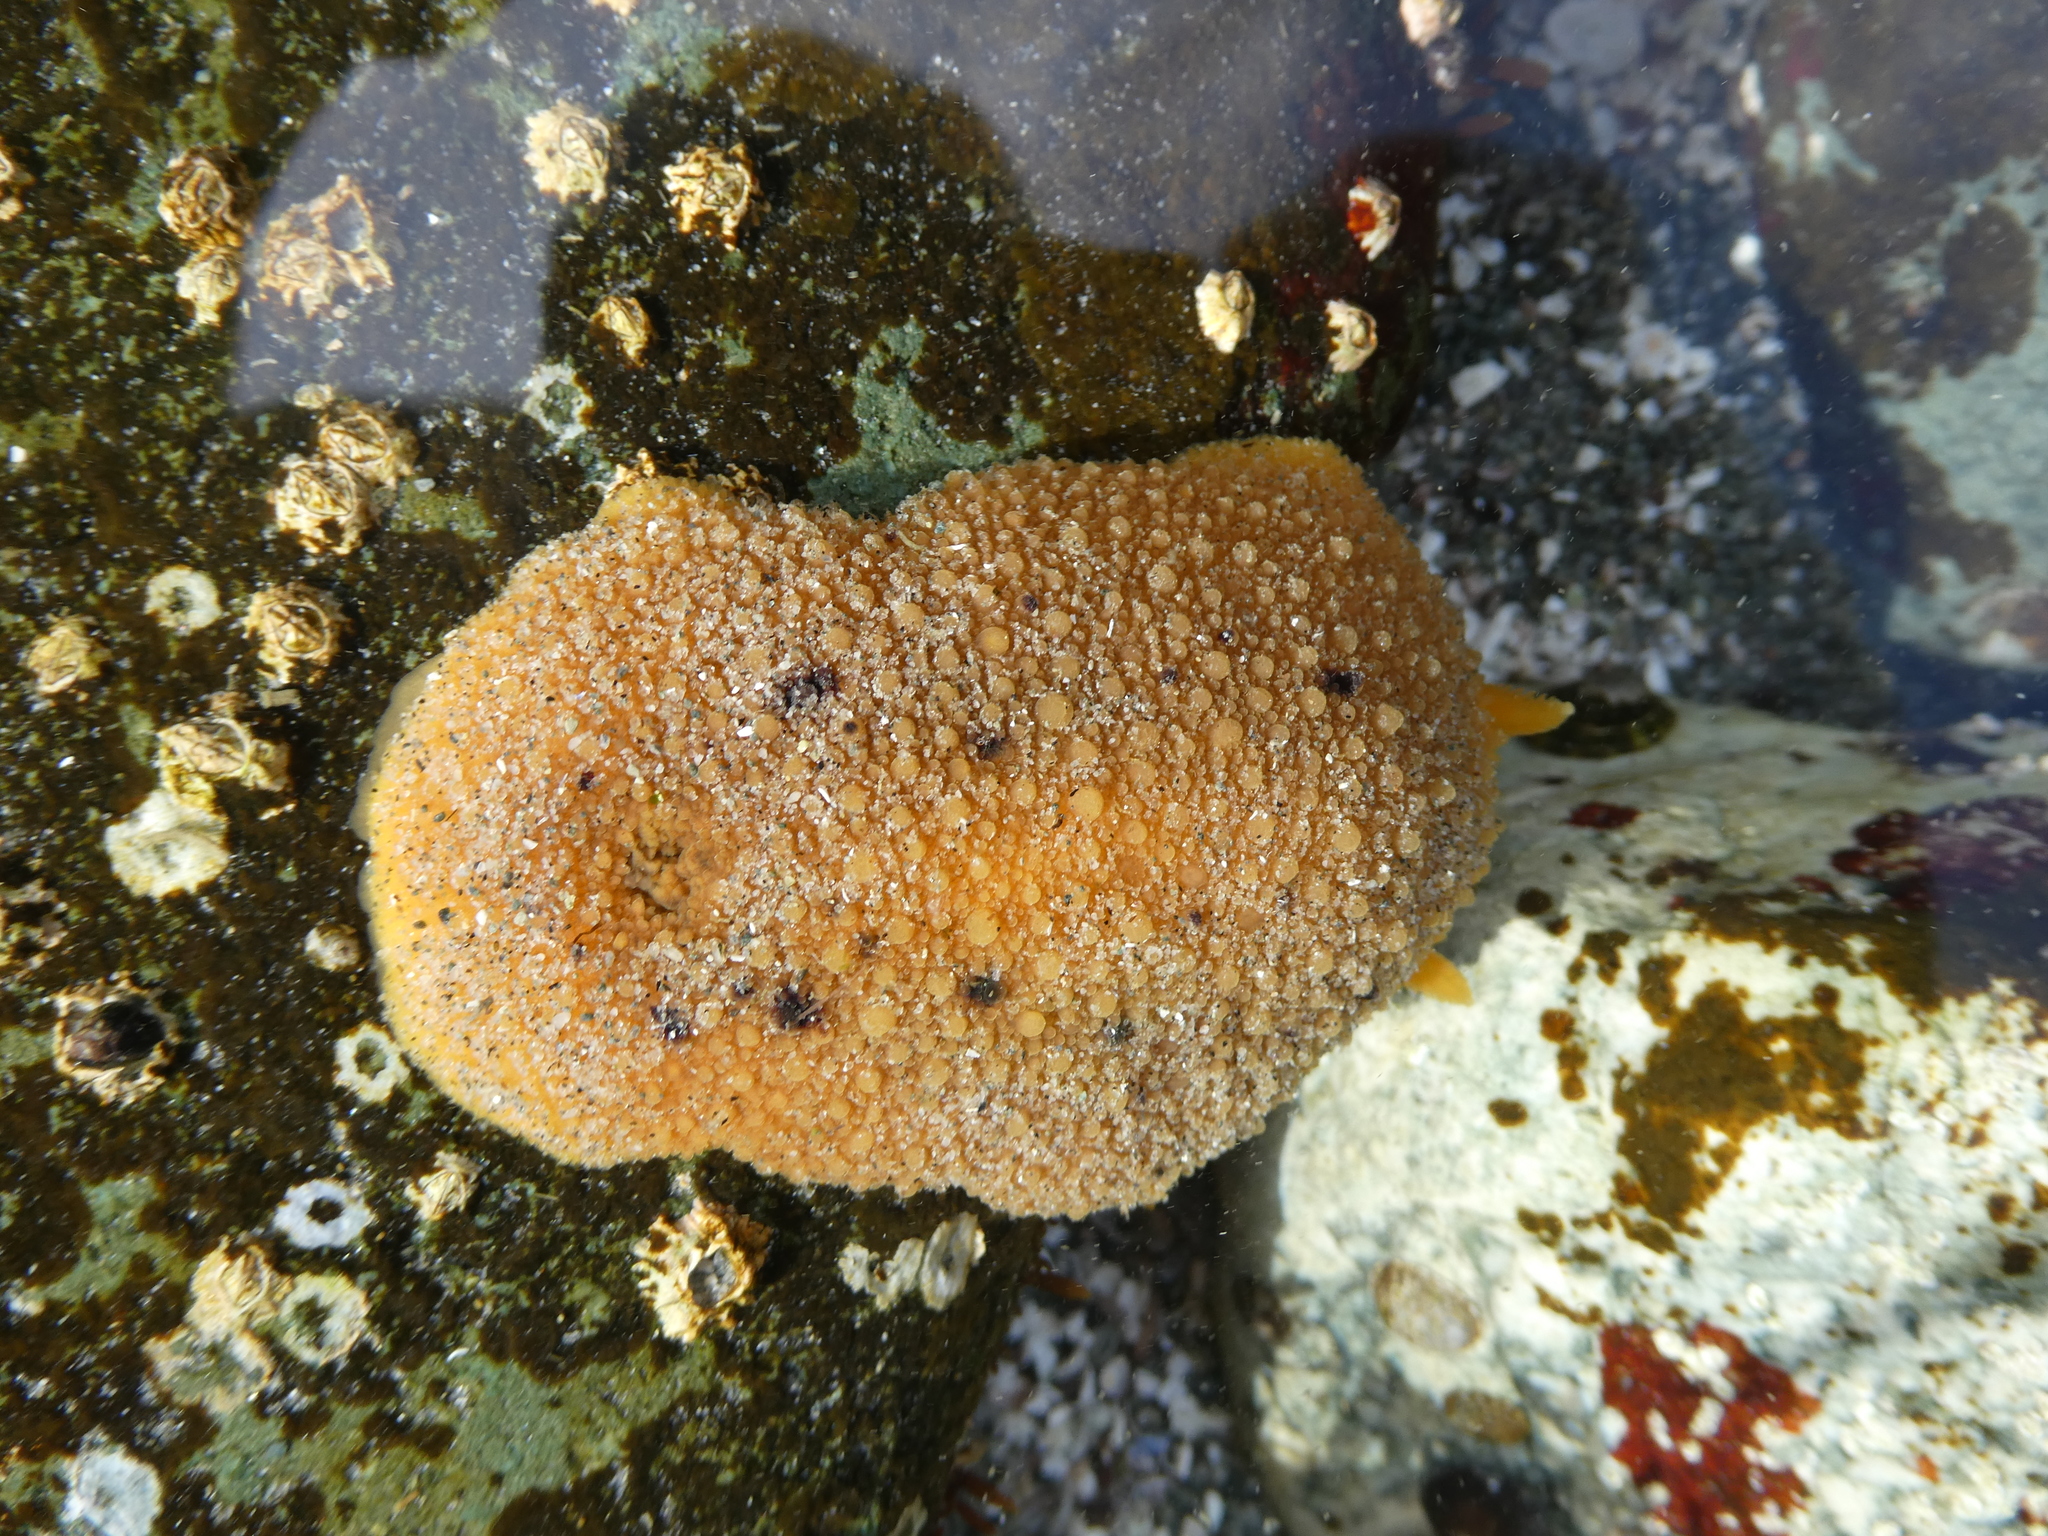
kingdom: Animalia
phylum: Mollusca
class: Gastropoda
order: Nudibranchia
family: Dorididae
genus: Doris
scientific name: Doris montereyensis
